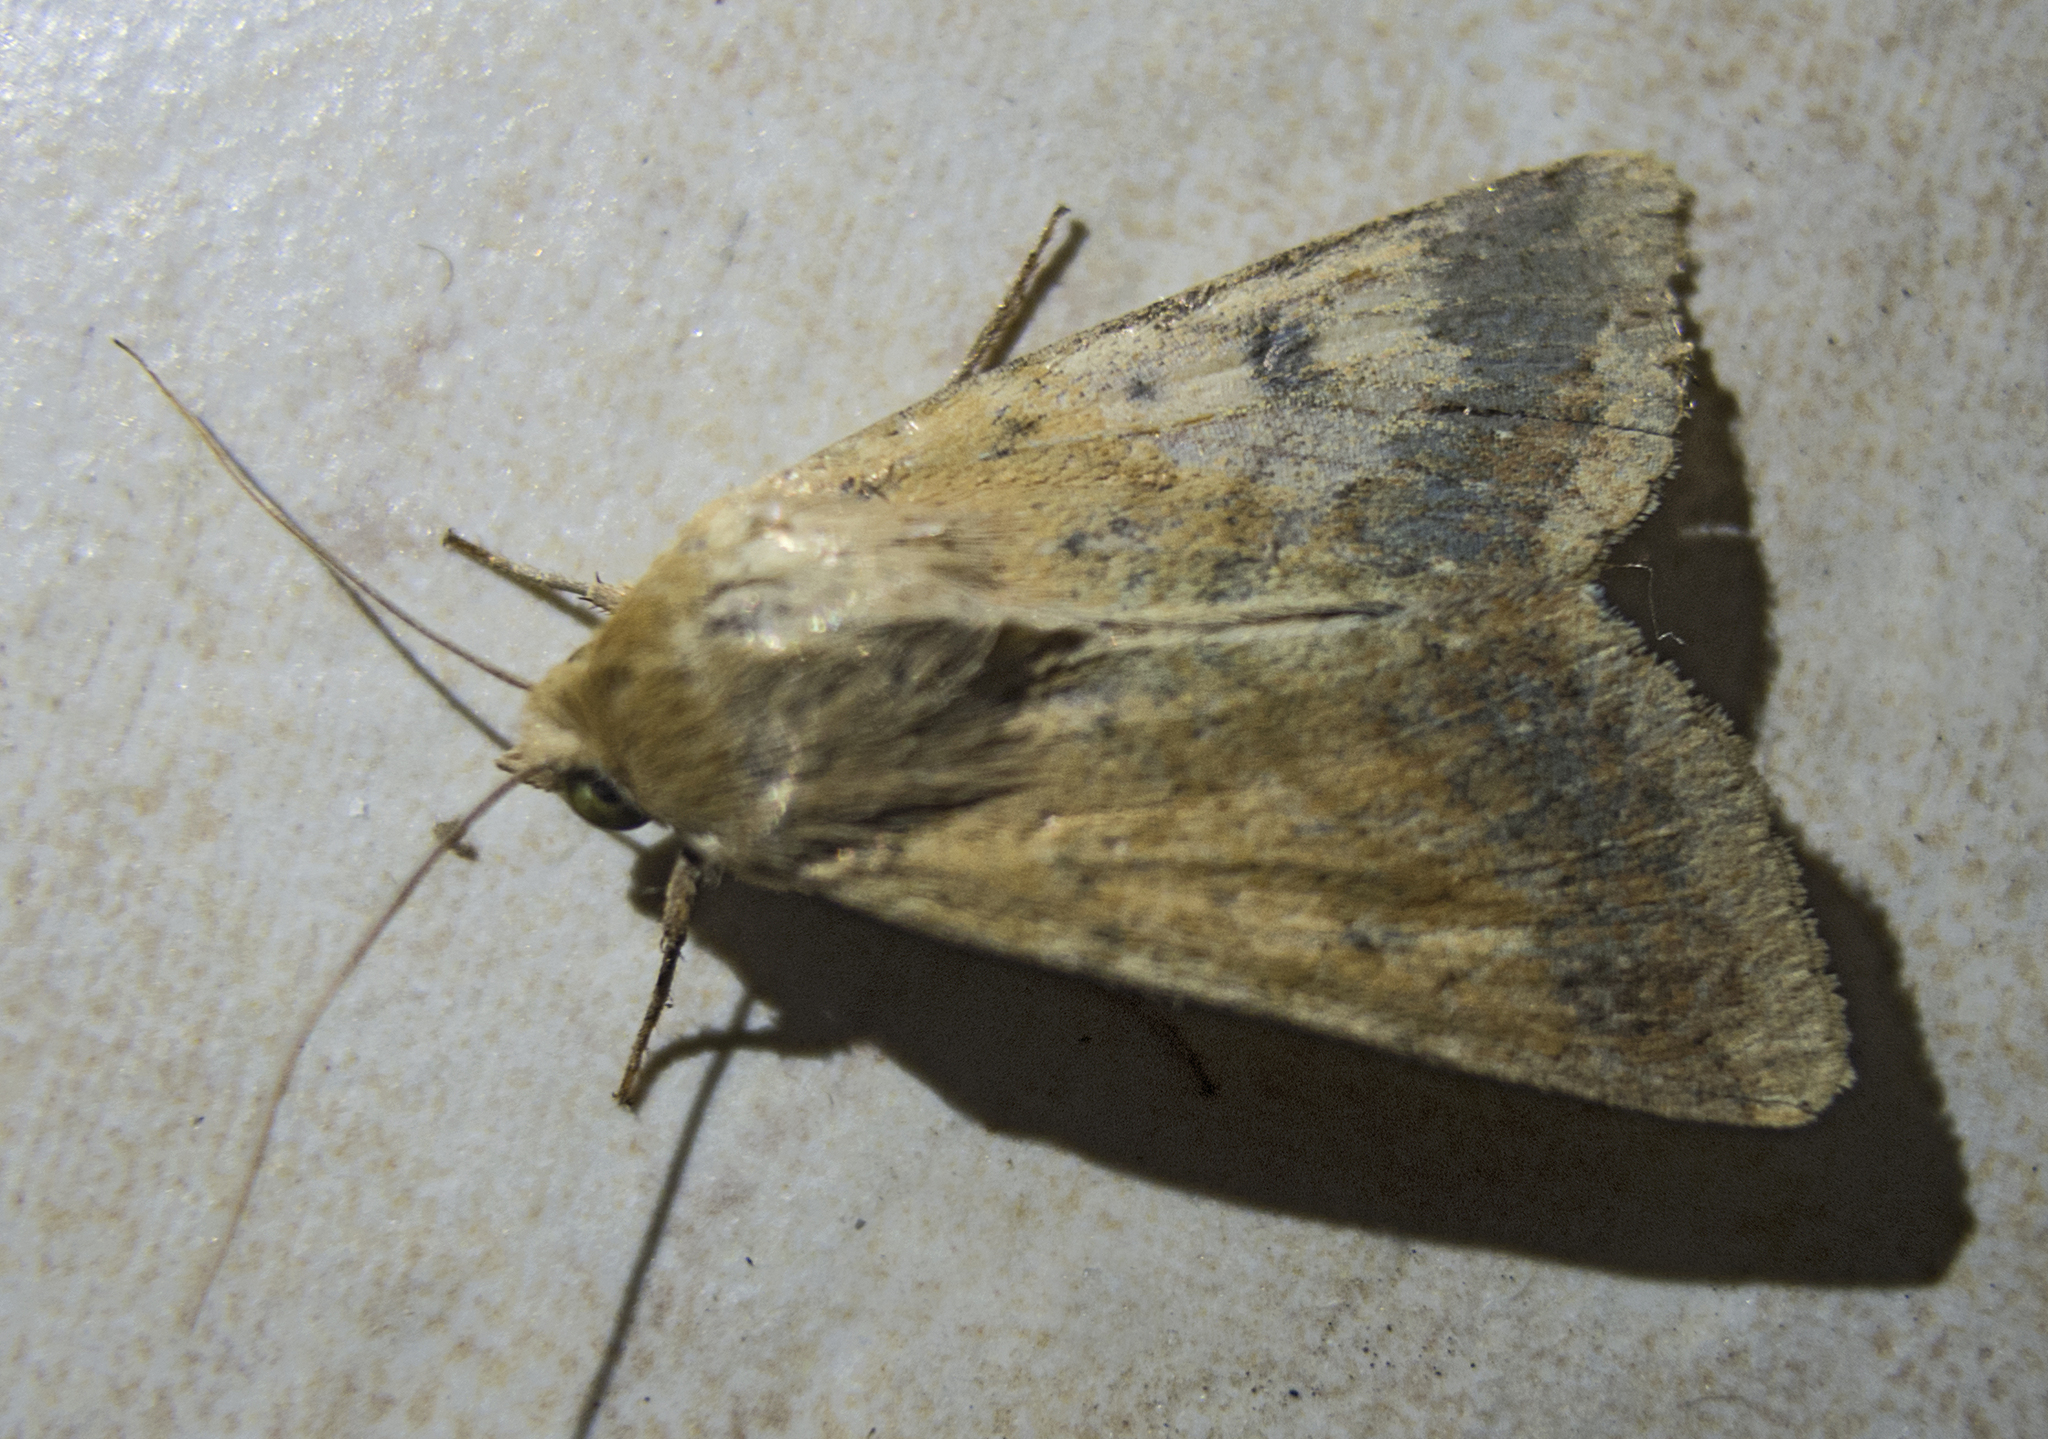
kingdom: Animalia
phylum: Arthropoda
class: Insecta
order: Lepidoptera
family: Noctuidae
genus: Helicoverpa
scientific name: Helicoverpa armigera
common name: Cotton bollworm
